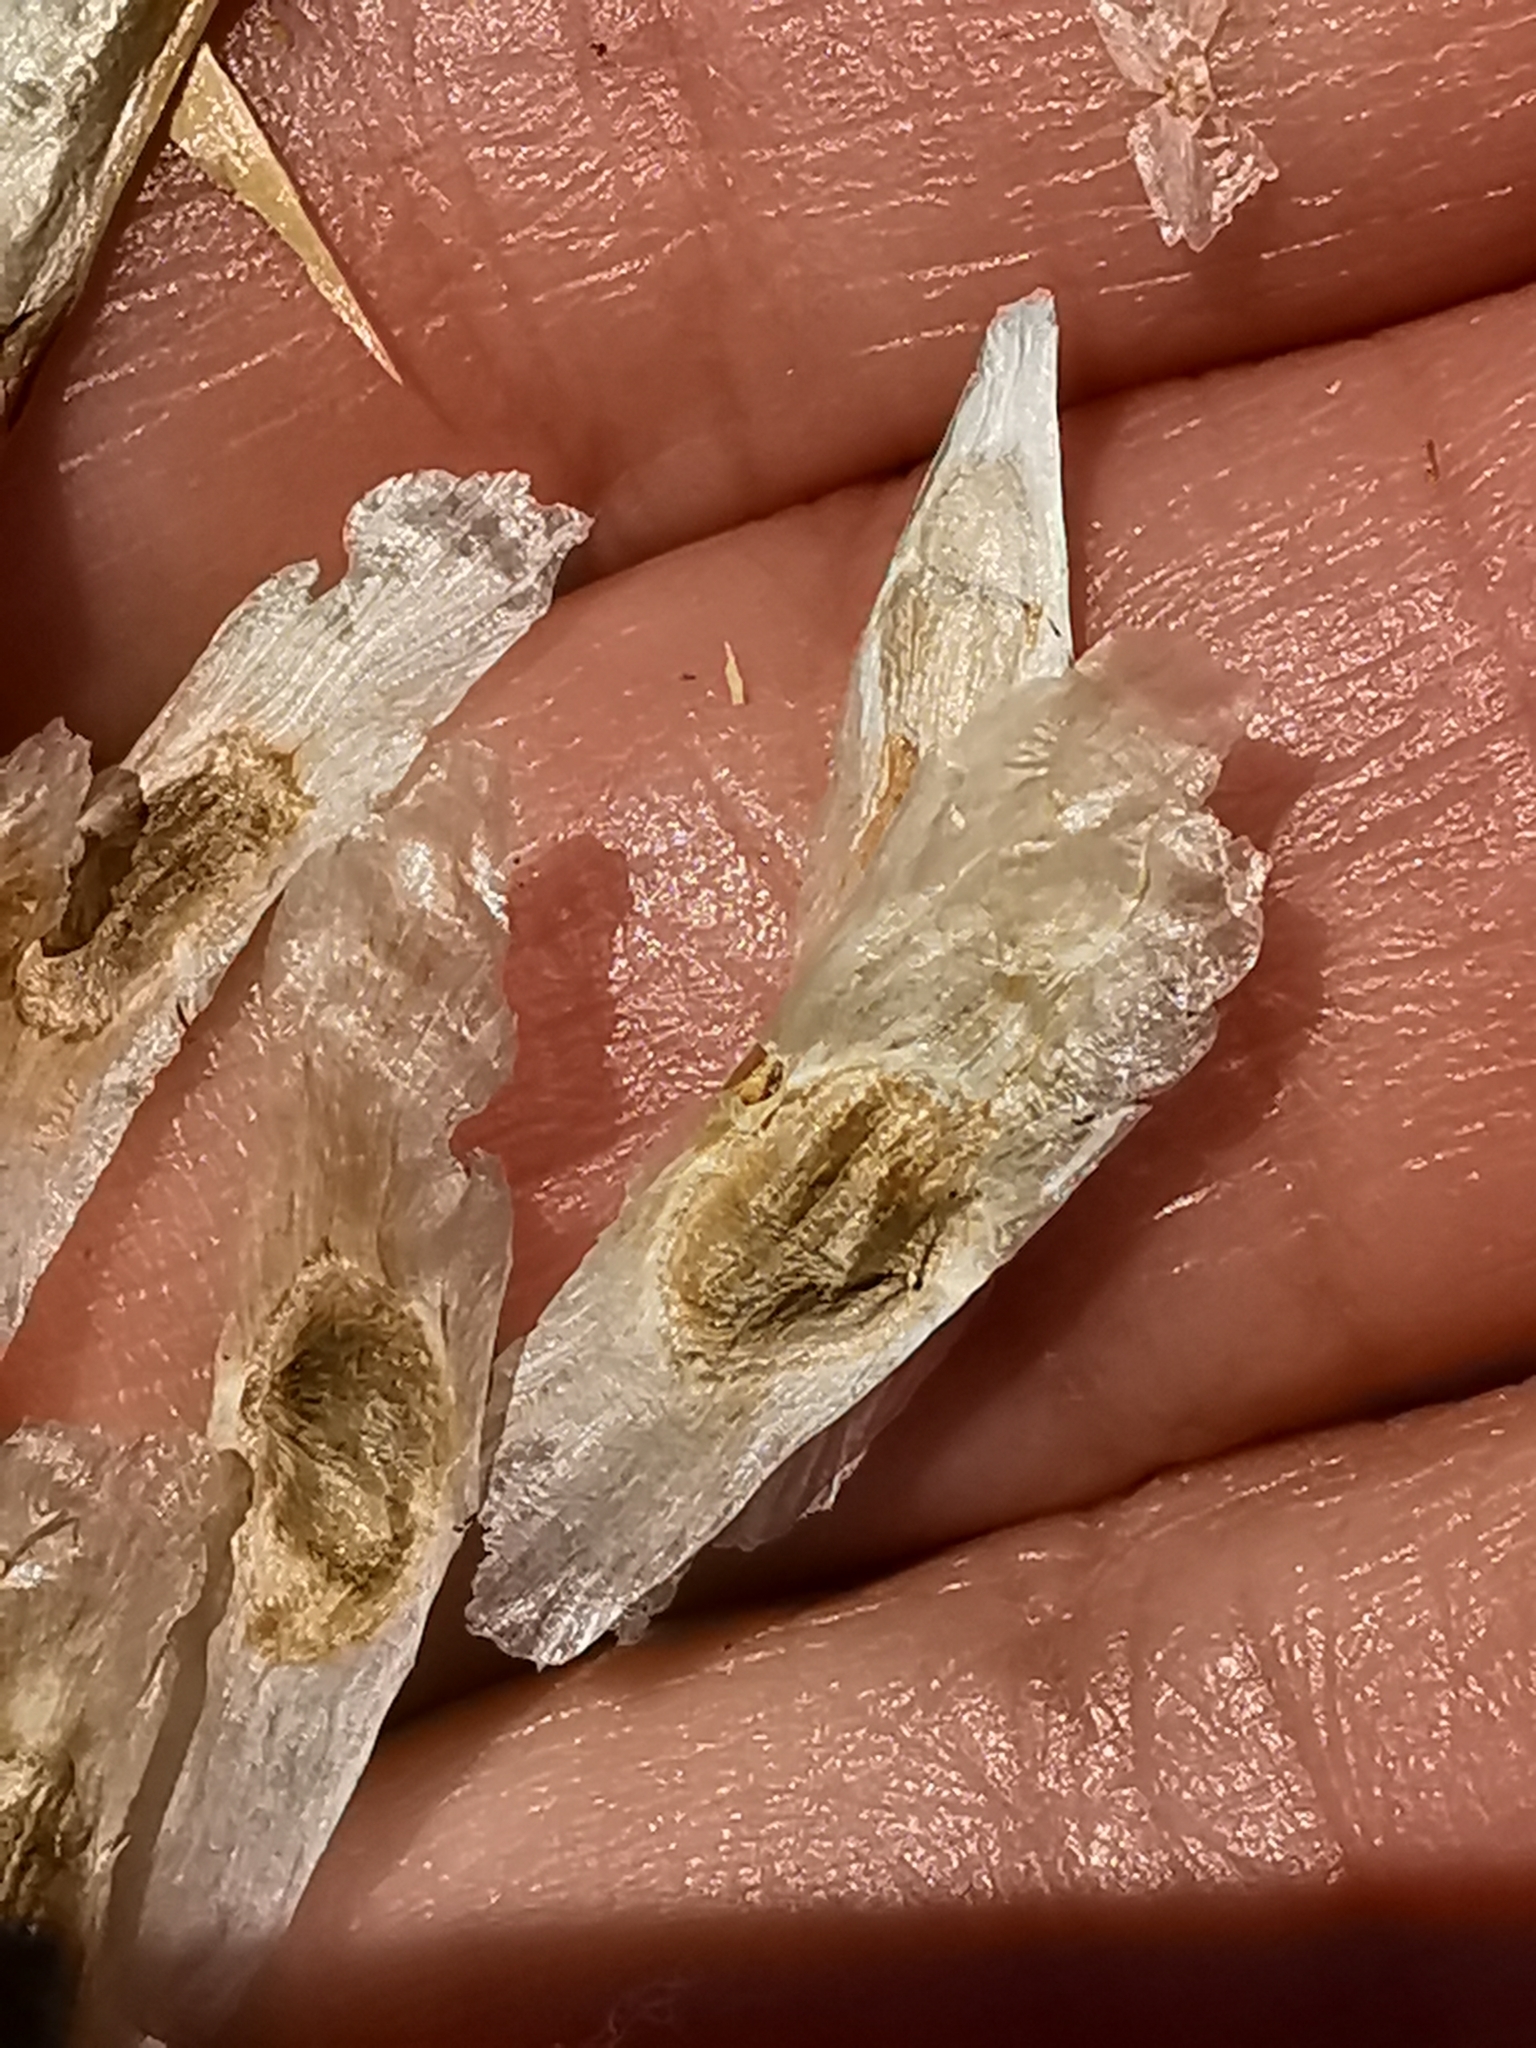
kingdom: Plantae
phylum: Tracheophyta
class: Magnoliopsida
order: Lamiales
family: Bignoniaceae
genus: Tecoma
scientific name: Tecoma stans
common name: Yellow trumpetbush
